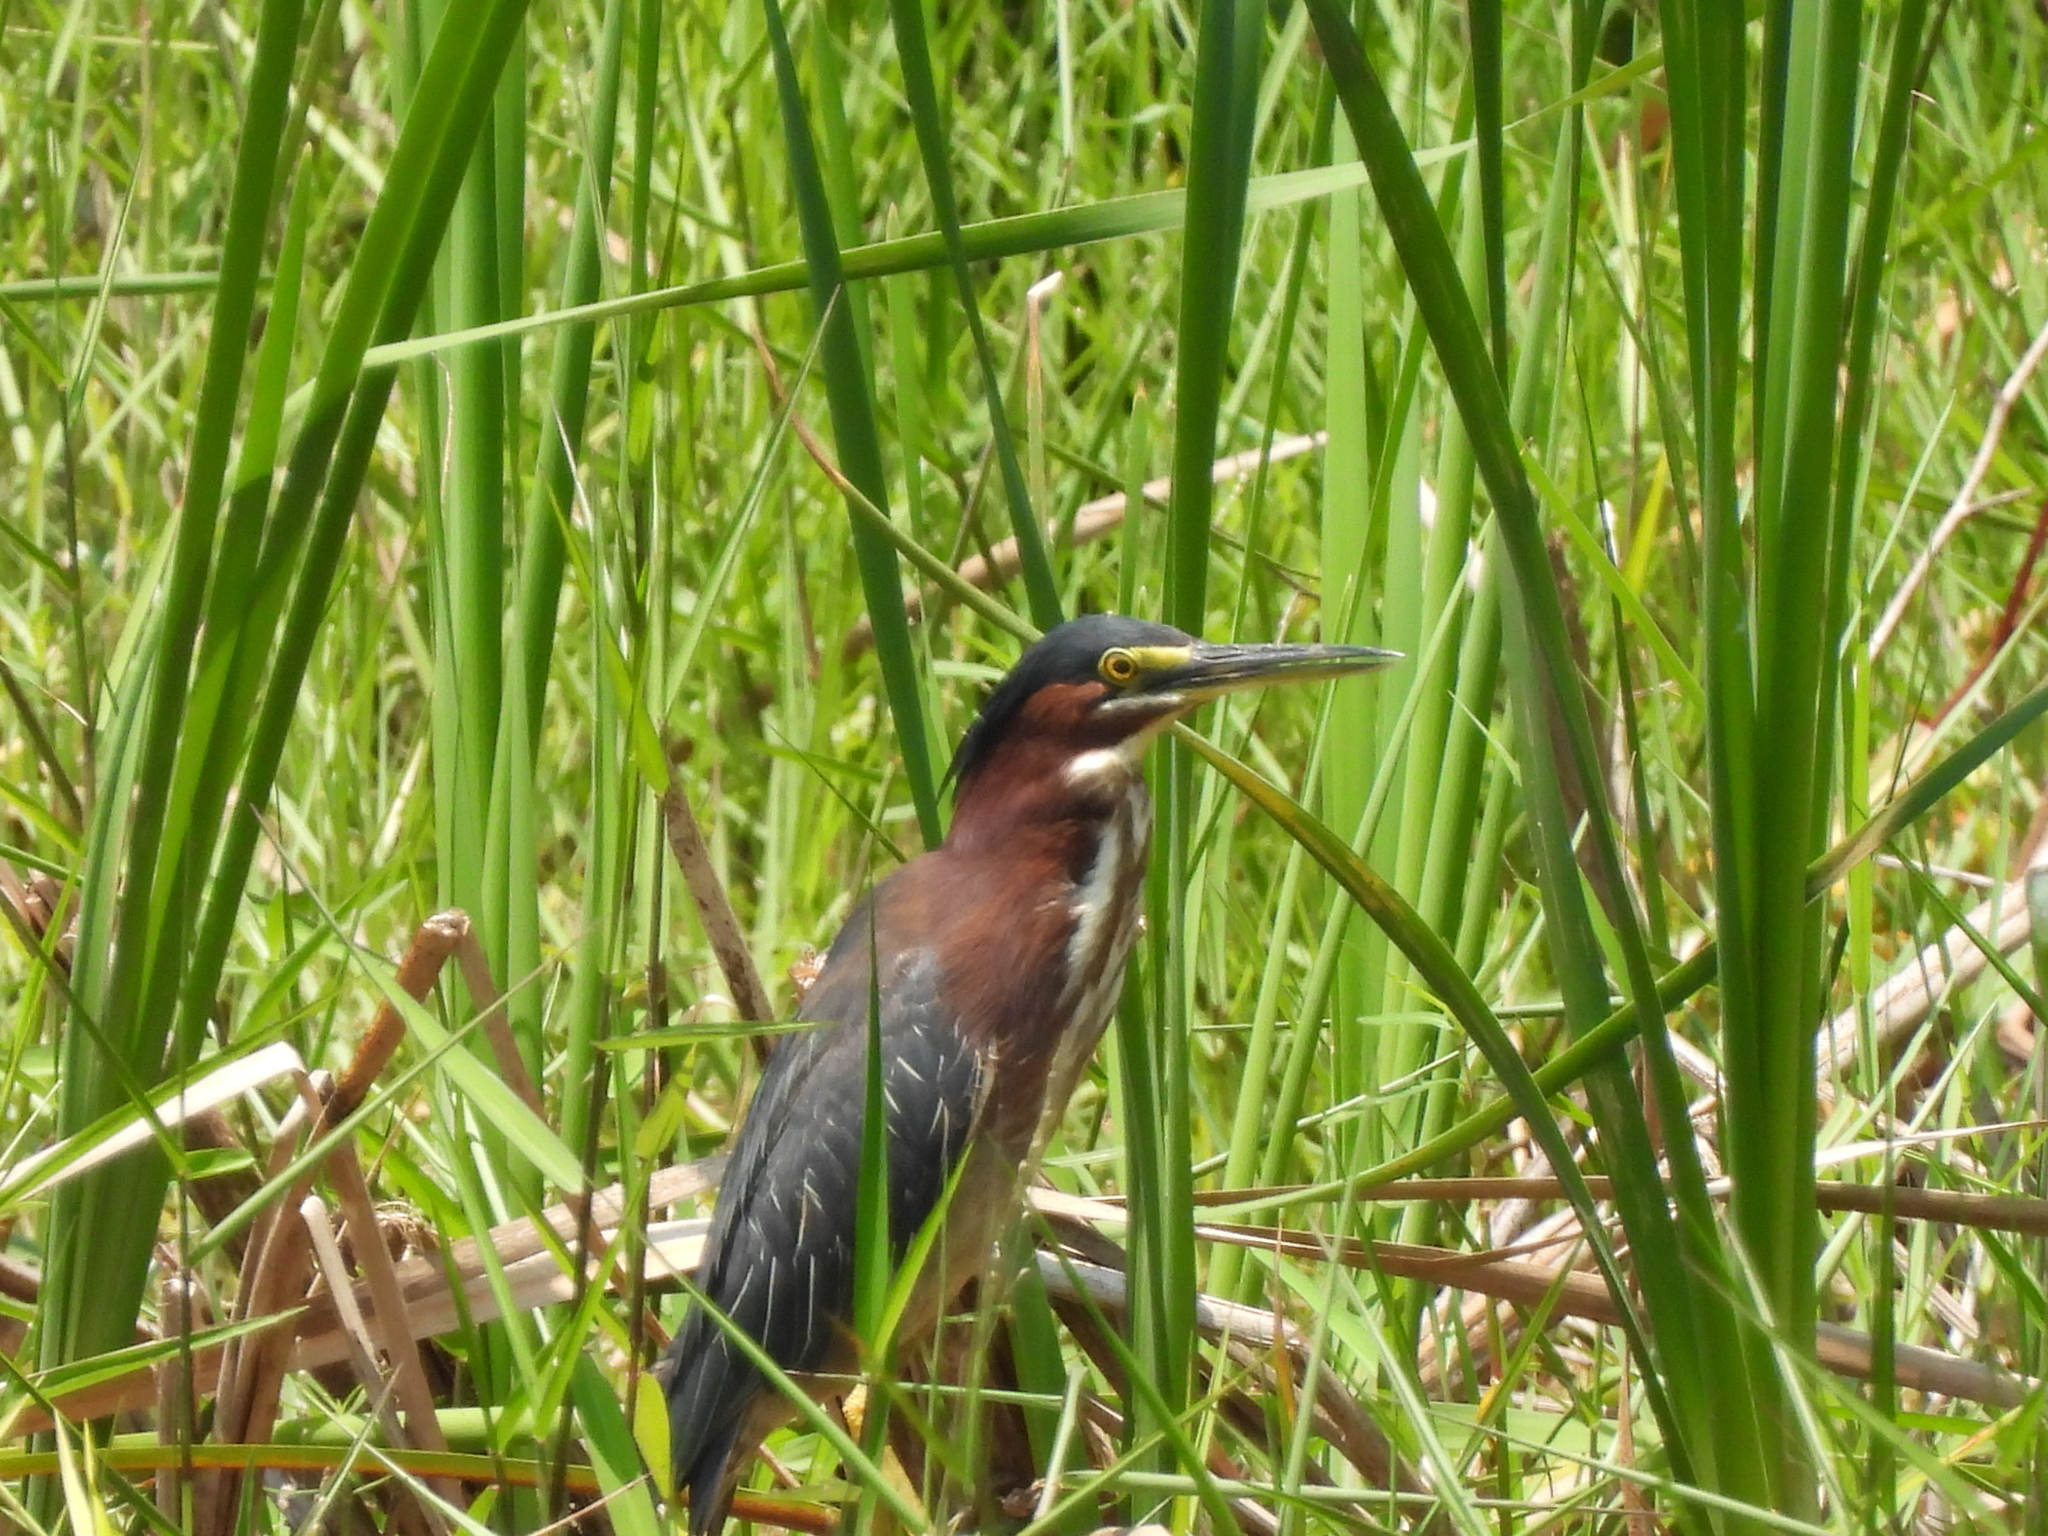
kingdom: Animalia
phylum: Chordata
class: Aves
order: Pelecaniformes
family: Ardeidae
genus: Butorides
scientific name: Butorides virescens
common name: Green heron
